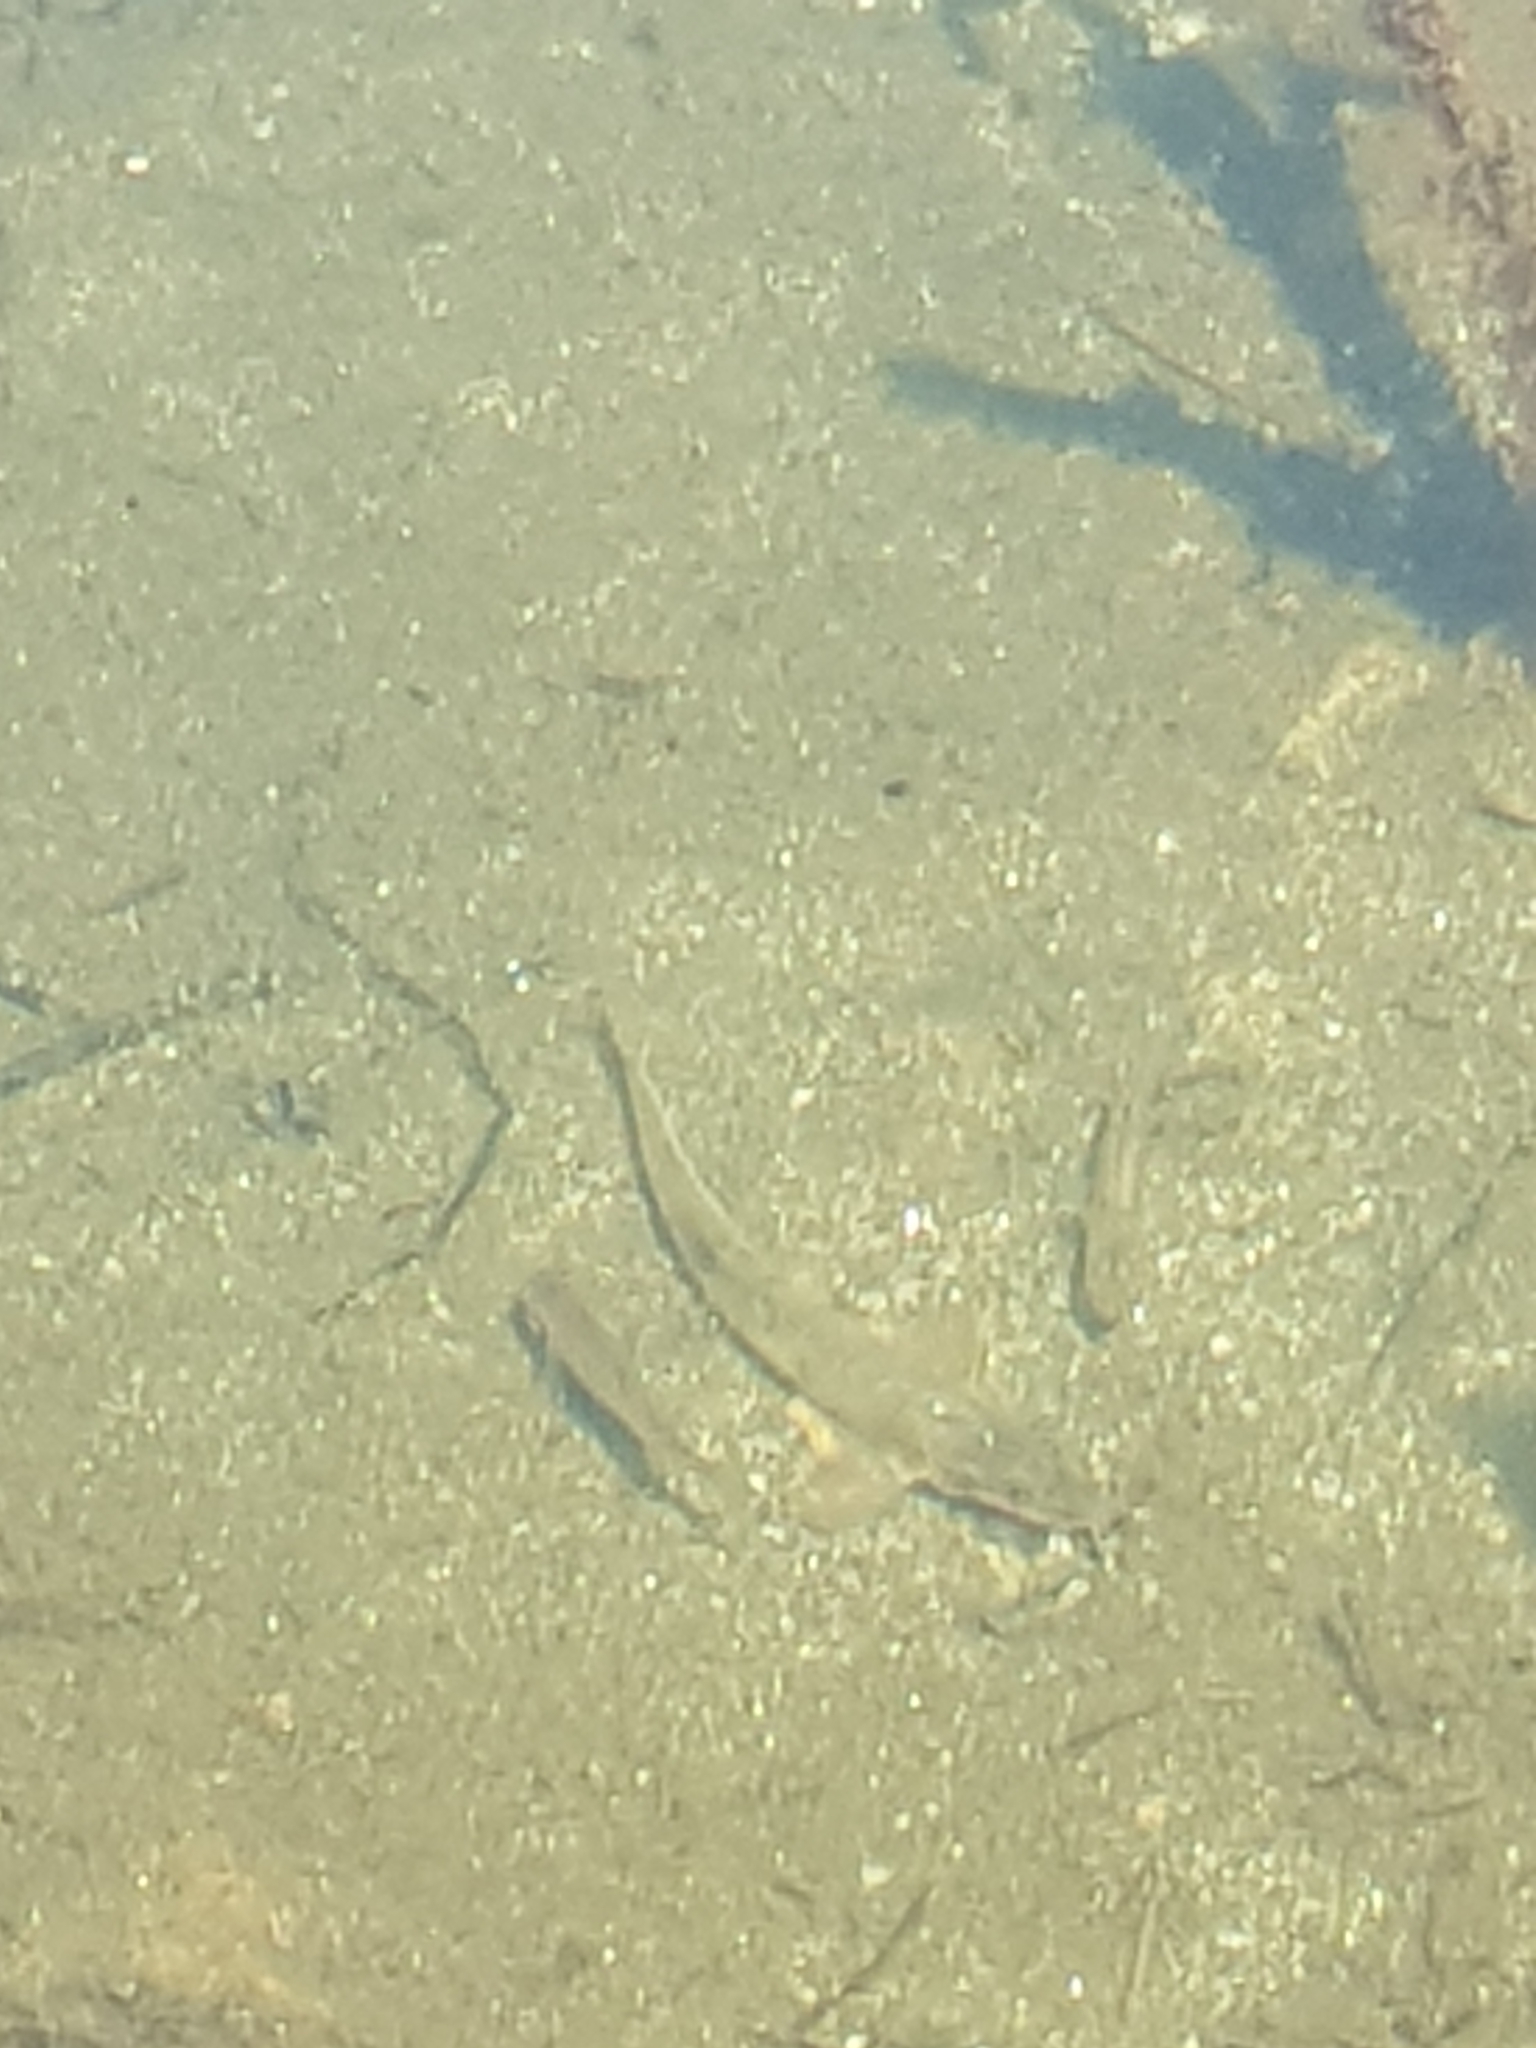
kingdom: Animalia
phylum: Chordata
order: Cypriniformes
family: Nemacheilidae
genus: Barbatula
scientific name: Barbatula barbatula
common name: Stone loach
